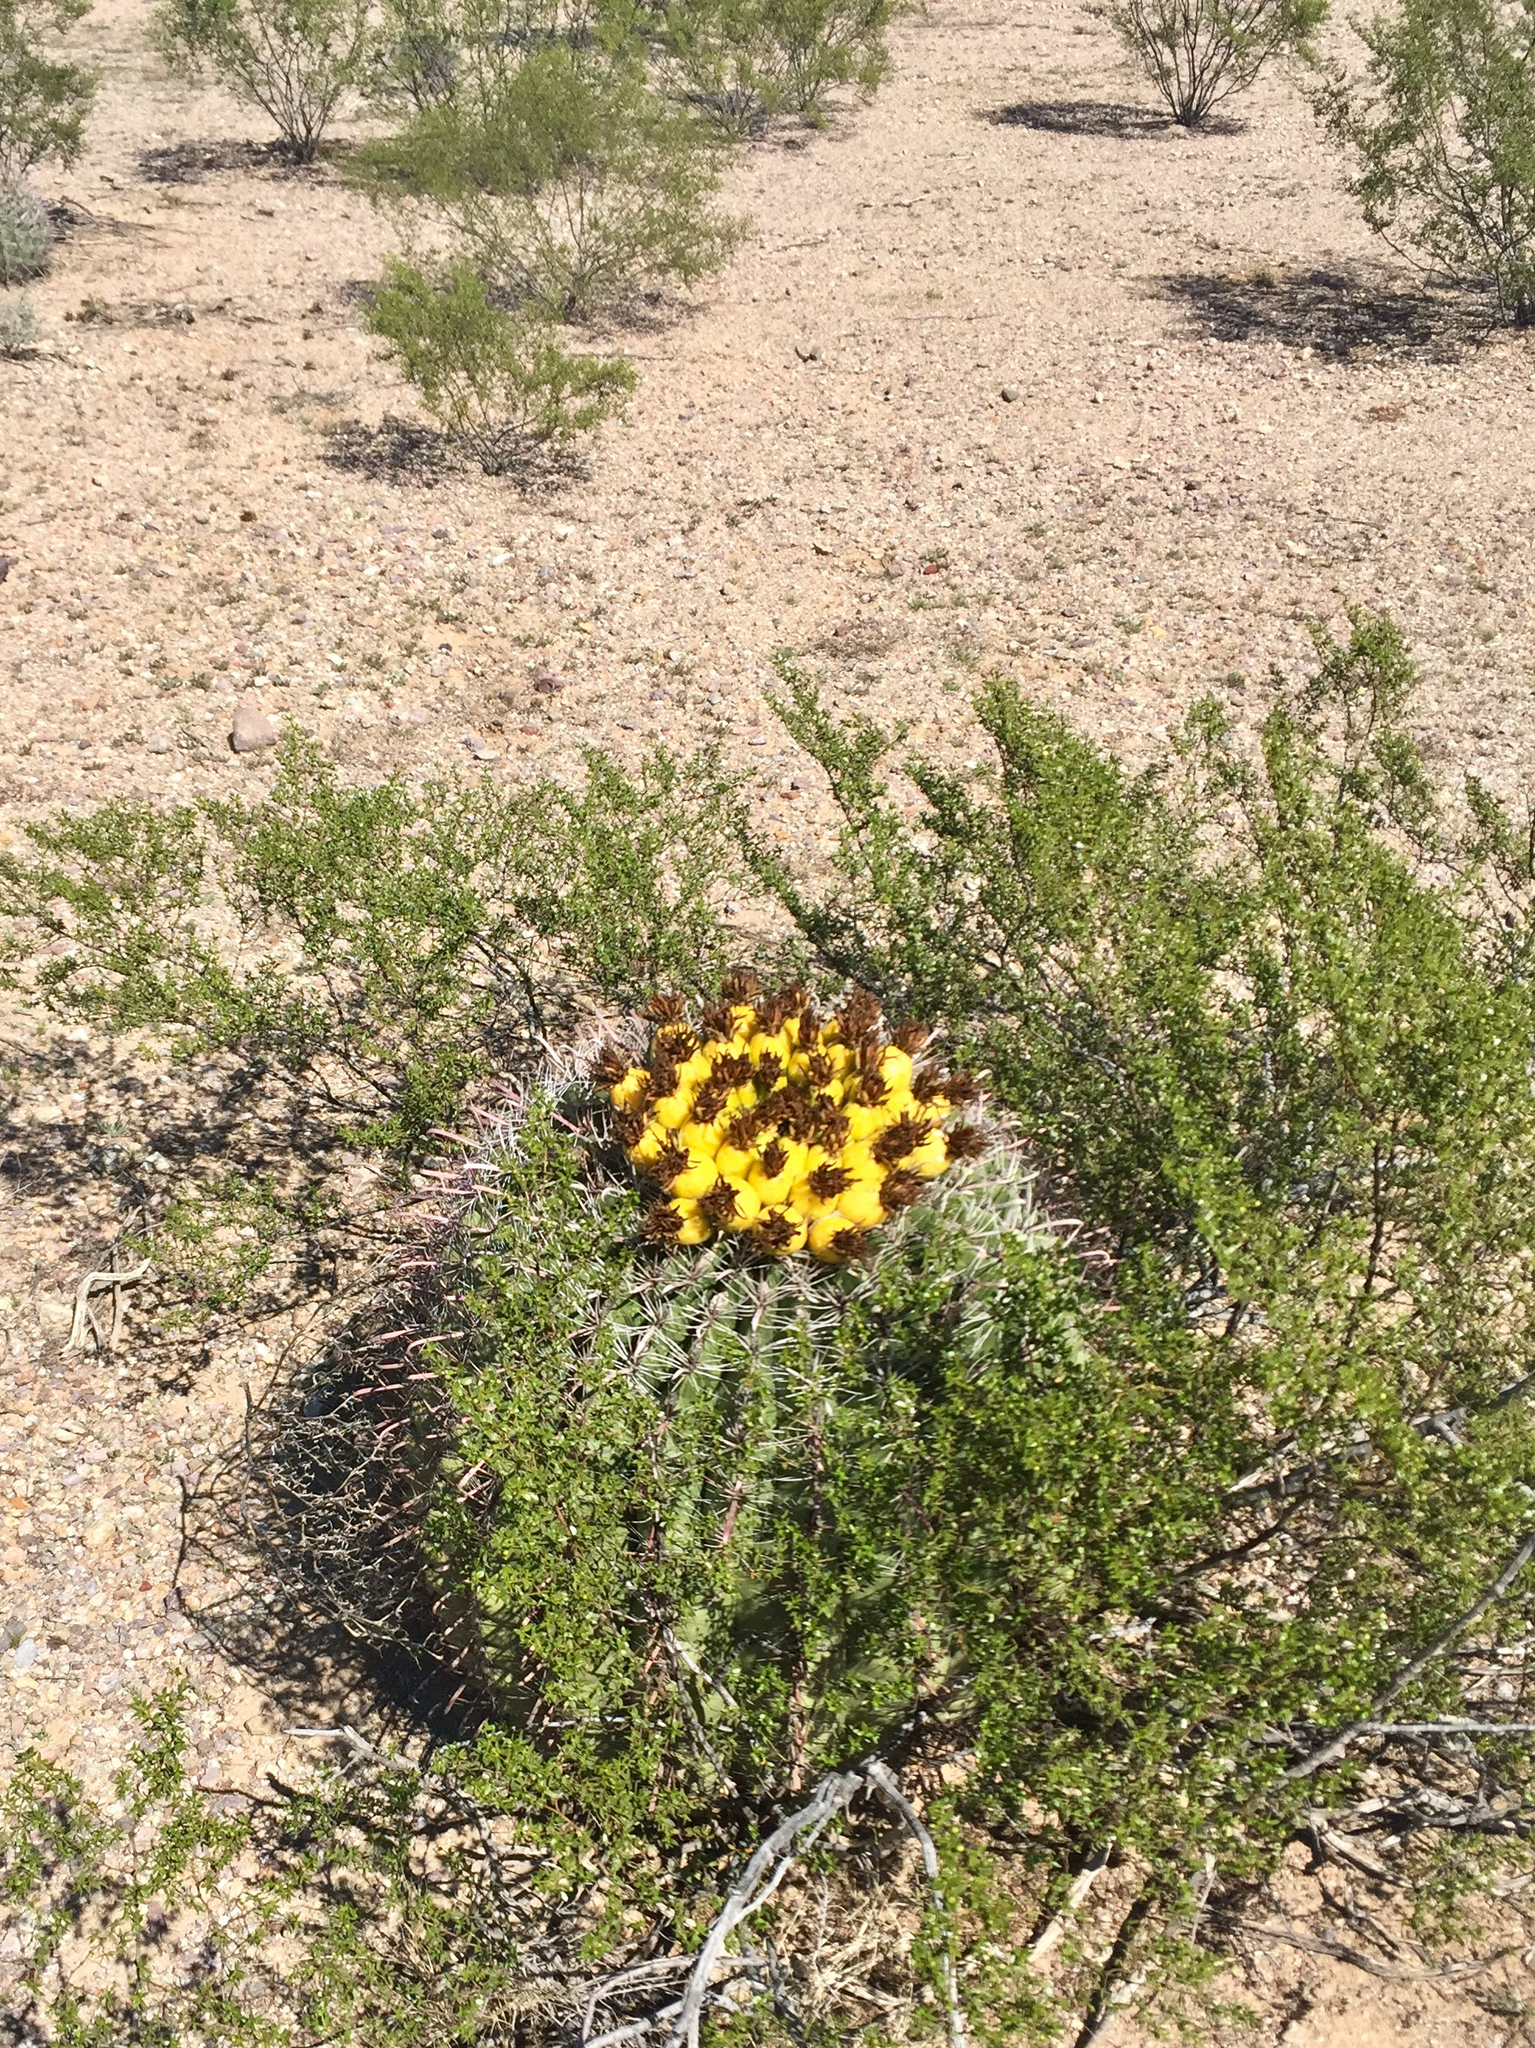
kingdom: Plantae
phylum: Tracheophyta
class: Magnoliopsida
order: Caryophyllales
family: Cactaceae
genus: Ferocactus
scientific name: Ferocactus wislizeni
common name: Candy barrel cactus
